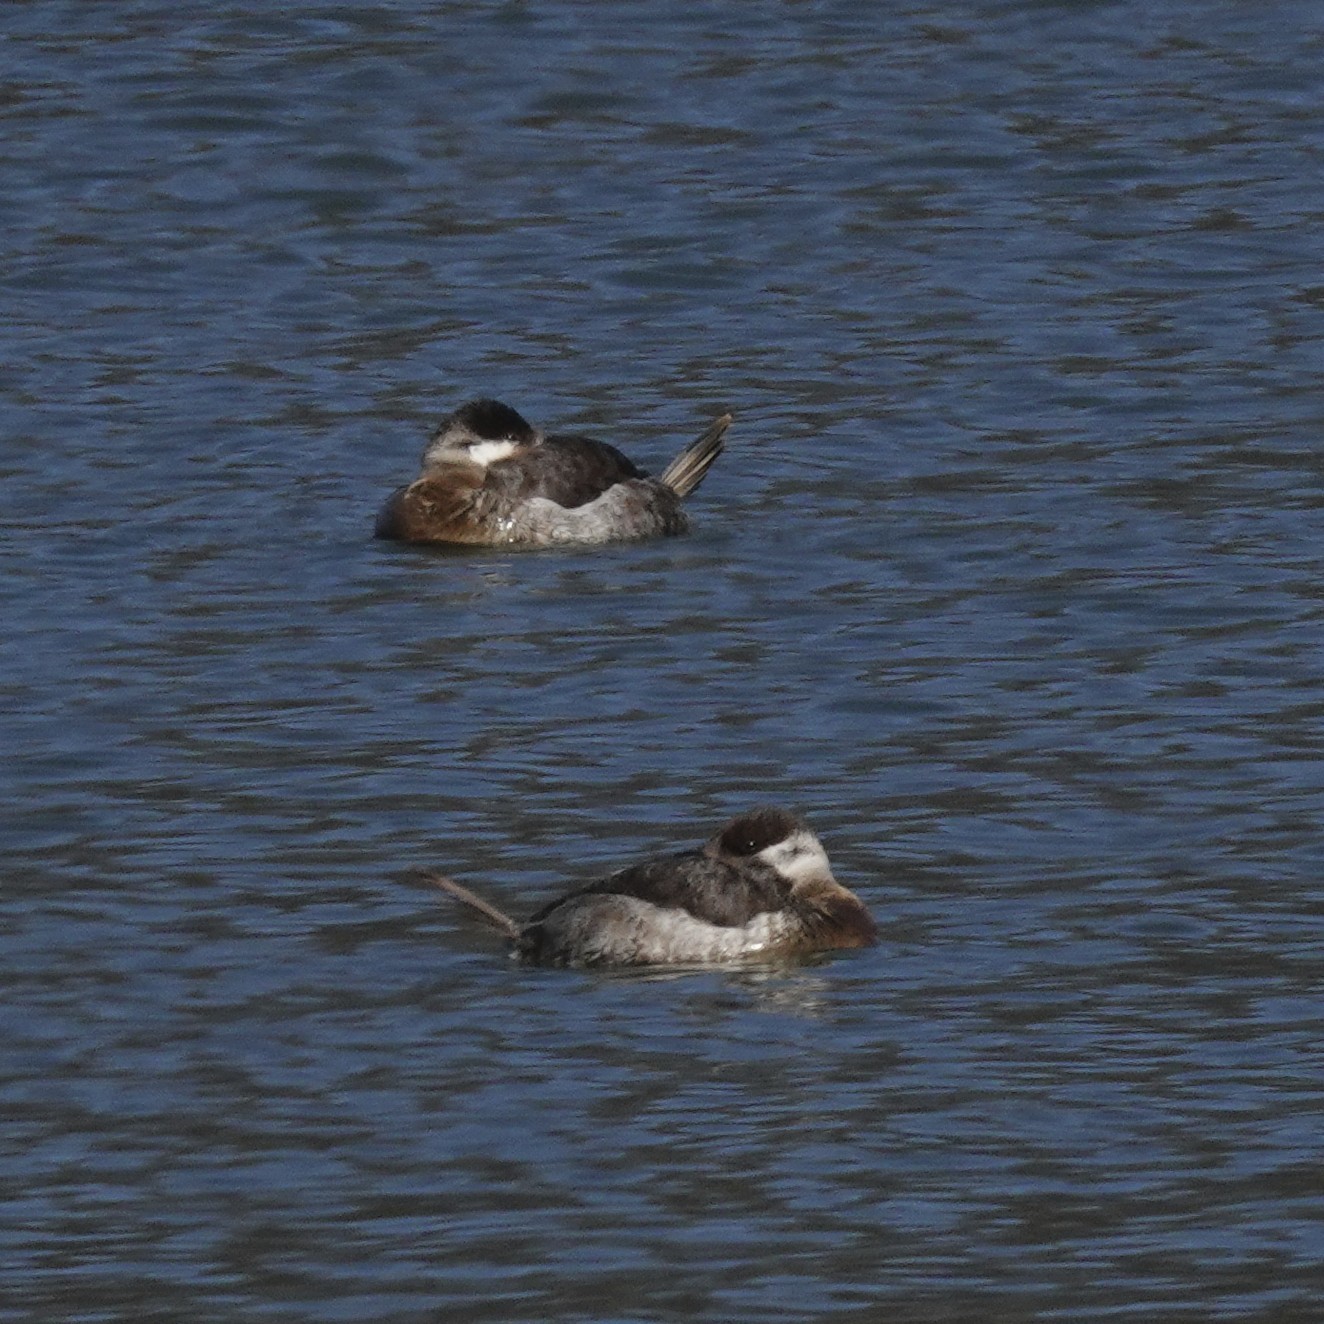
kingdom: Animalia
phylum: Chordata
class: Aves
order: Anseriformes
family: Anatidae
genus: Oxyura
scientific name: Oxyura jamaicensis
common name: Ruddy duck
